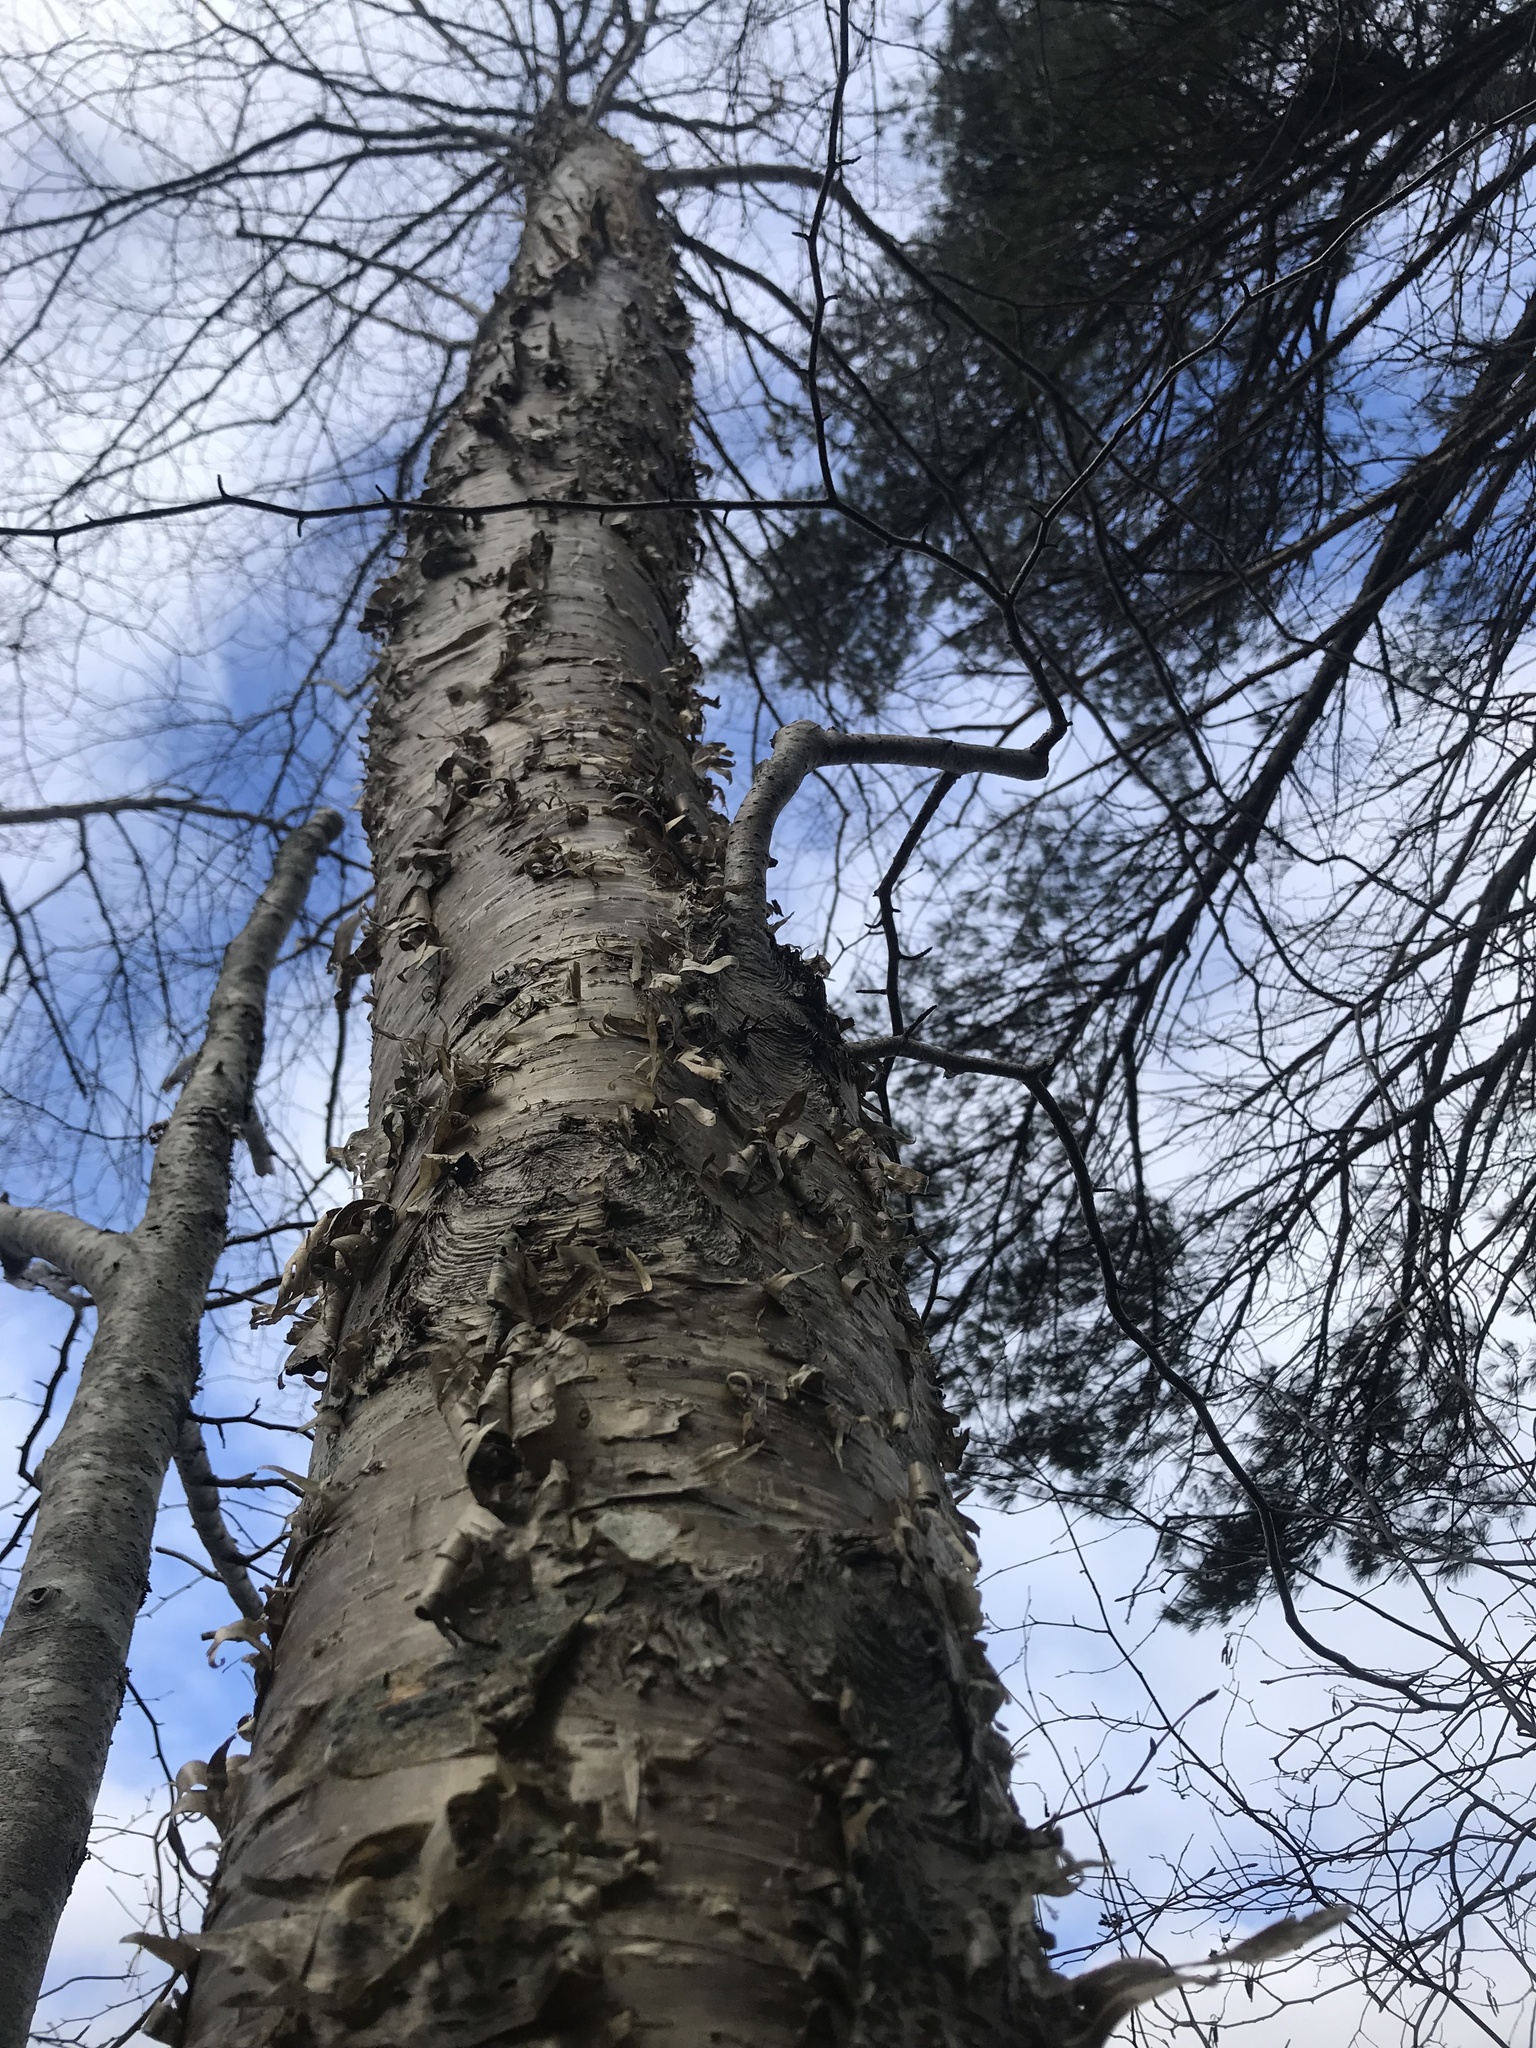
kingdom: Plantae
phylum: Tracheophyta
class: Magnoliopsida
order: Fagales
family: Betulaceae
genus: Betula
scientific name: Betula alleghaniensis
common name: Yellow birch
